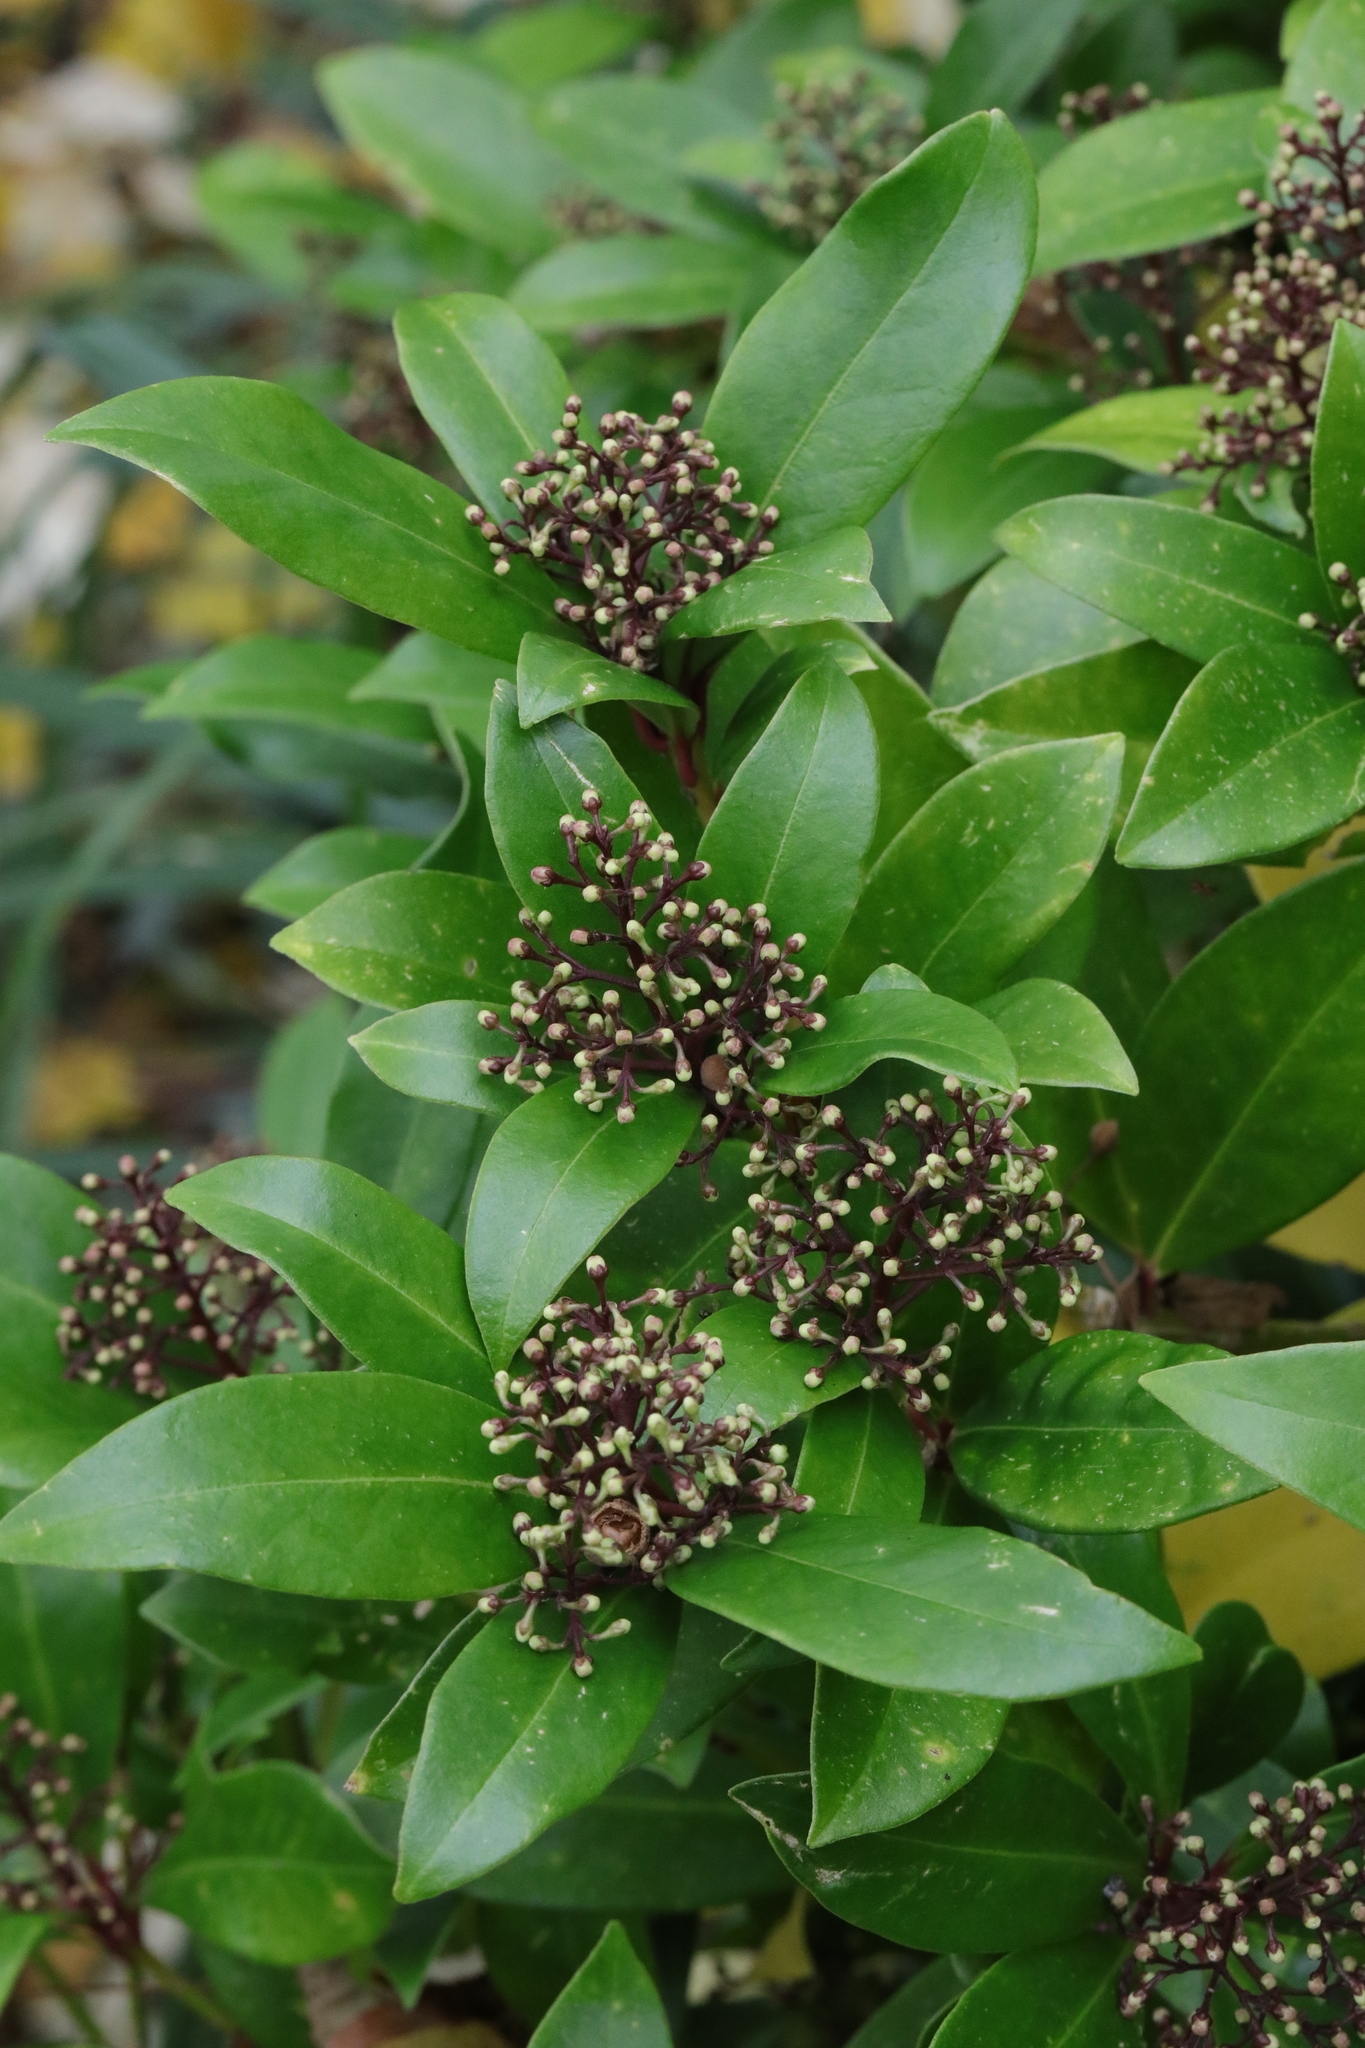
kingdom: Plantae
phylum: Tracheophyta
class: Magnoliopsida
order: Sapindales
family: Rutaceae
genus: Skimmia
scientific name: Skimmia japonica
